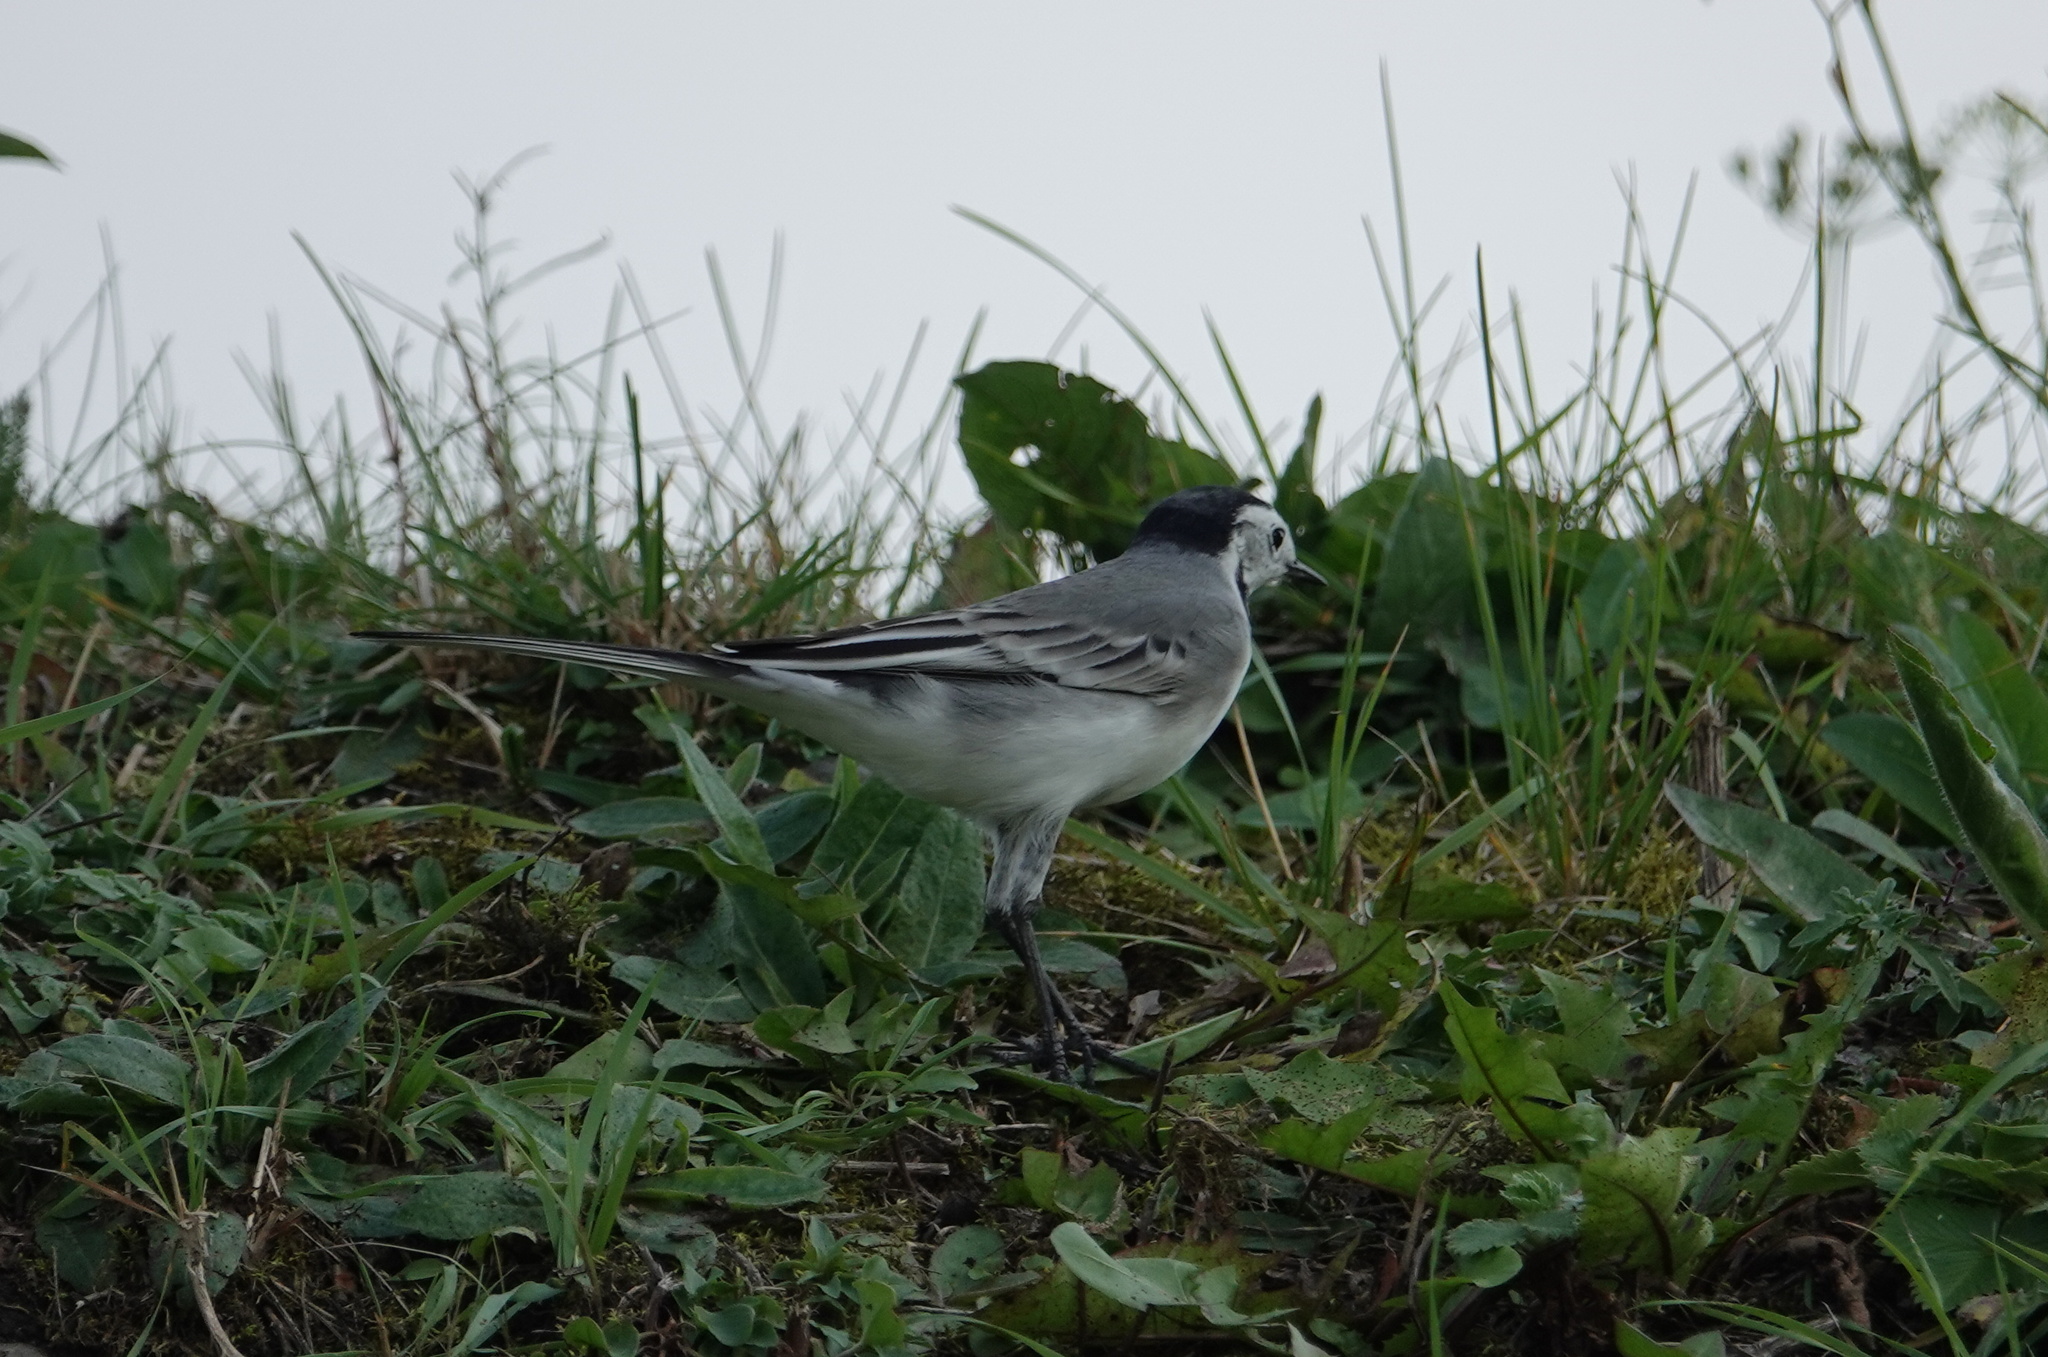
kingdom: Animalia
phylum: Chordata
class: Aves
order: Passeriformes
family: Motacillidae
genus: Motacilla
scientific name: Motacilla alba
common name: White wagtail
